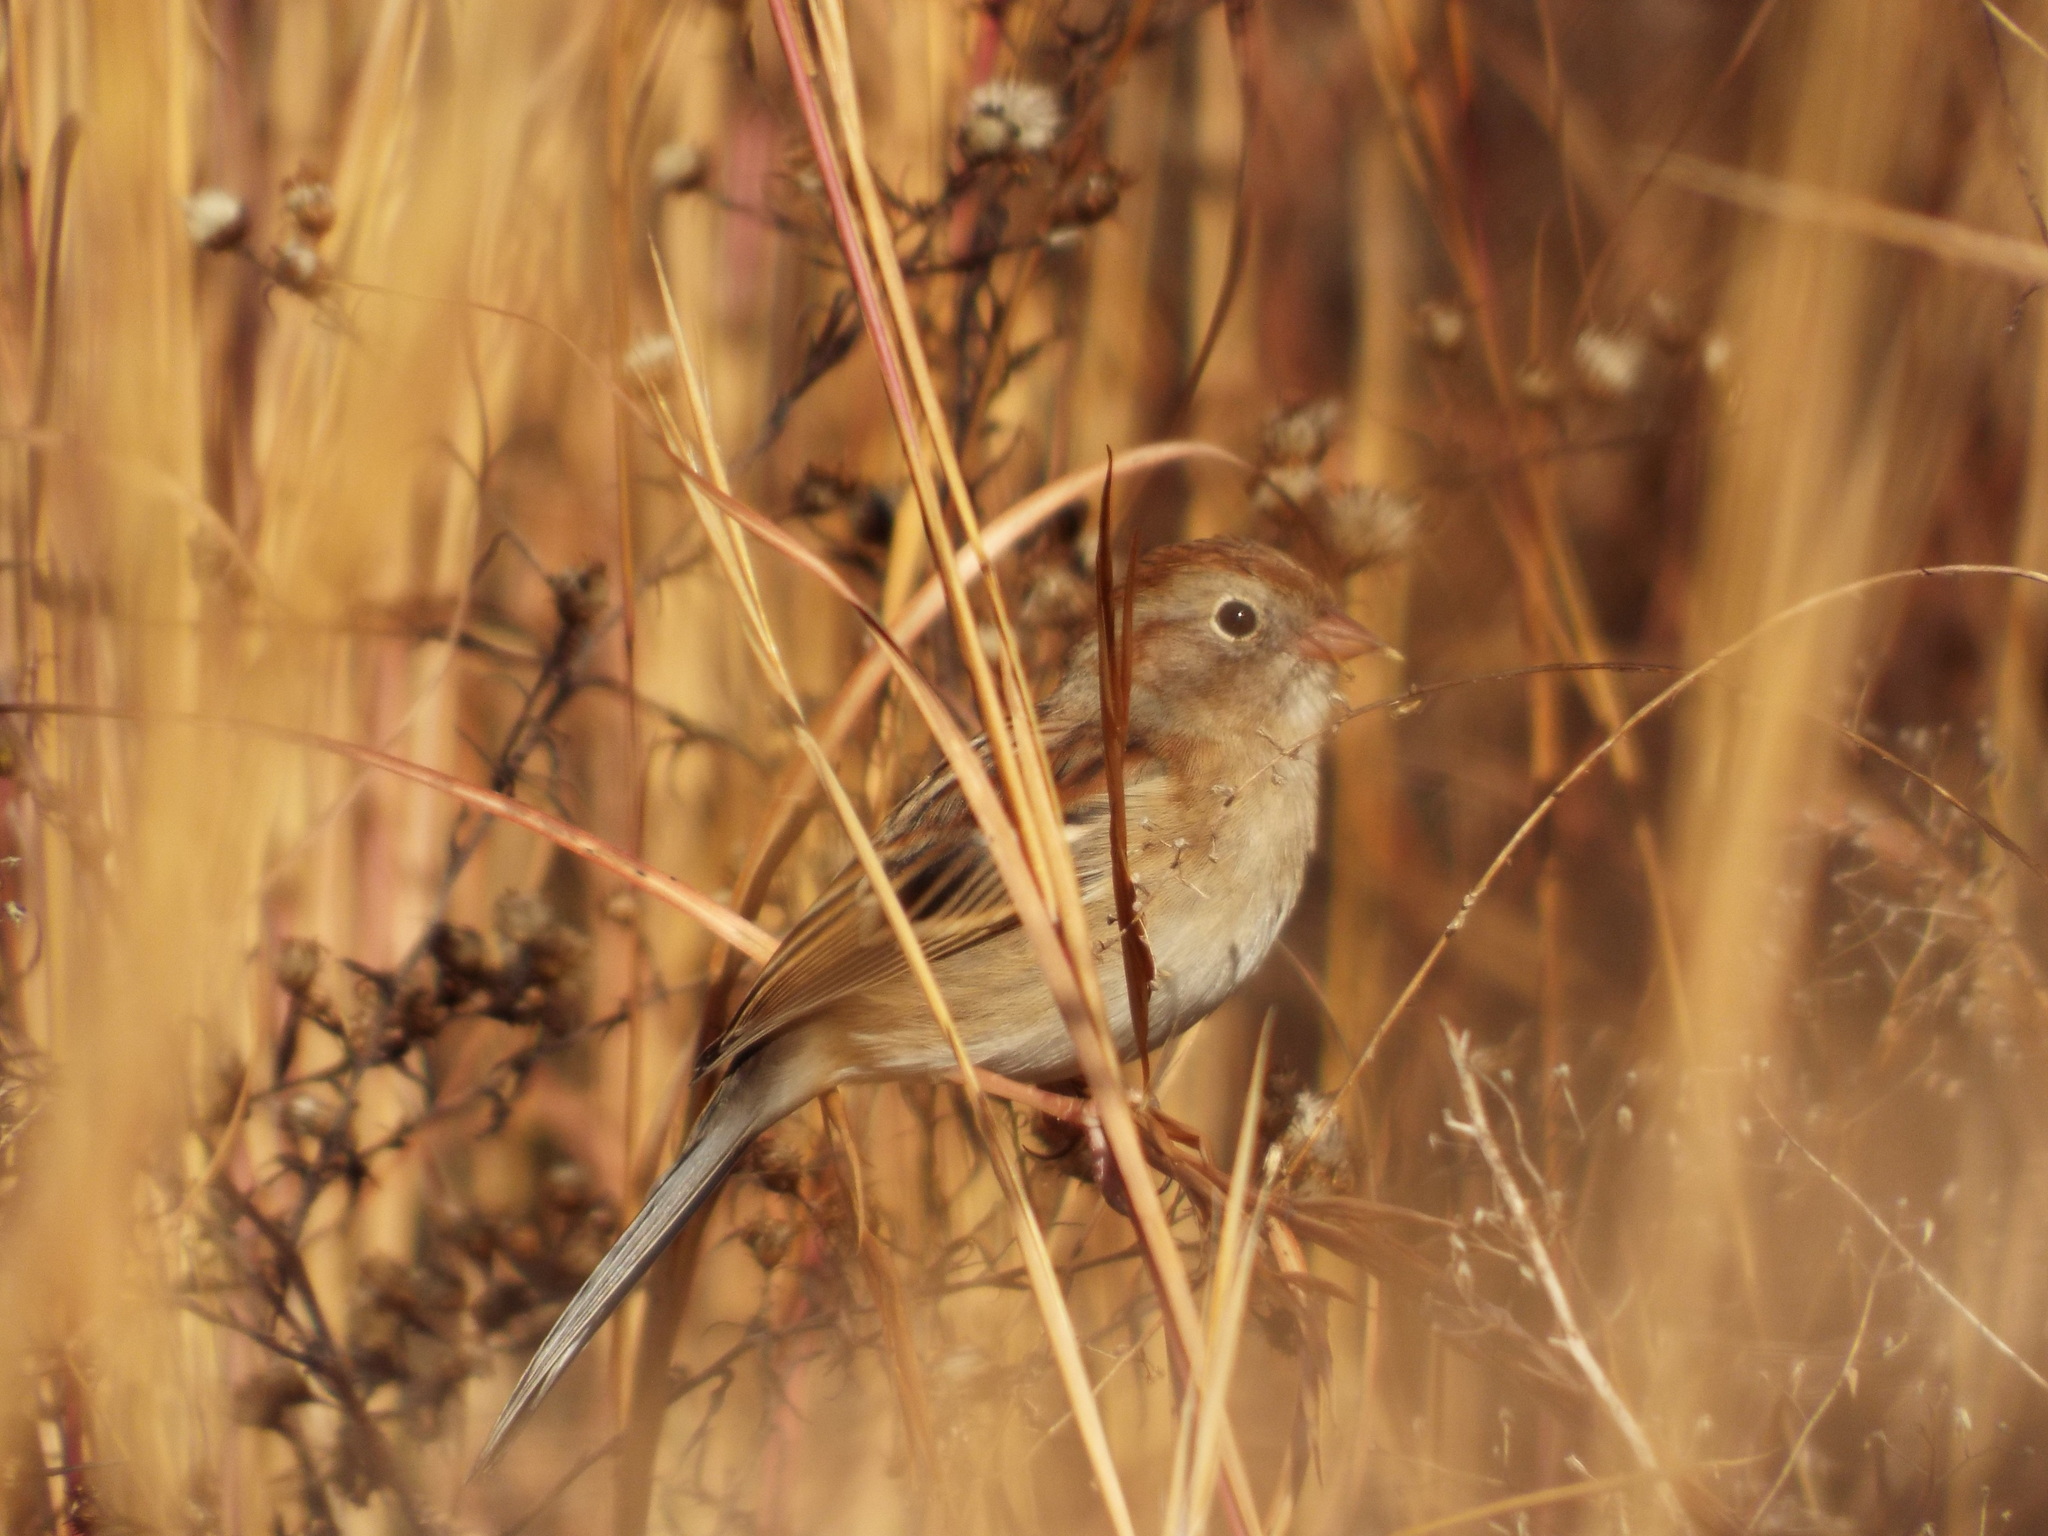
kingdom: Animalia
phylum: Chordata
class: Aves
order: Passeriformes
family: Passerellidae
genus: Spizella
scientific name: Spizella pusilla
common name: Field sparrow
